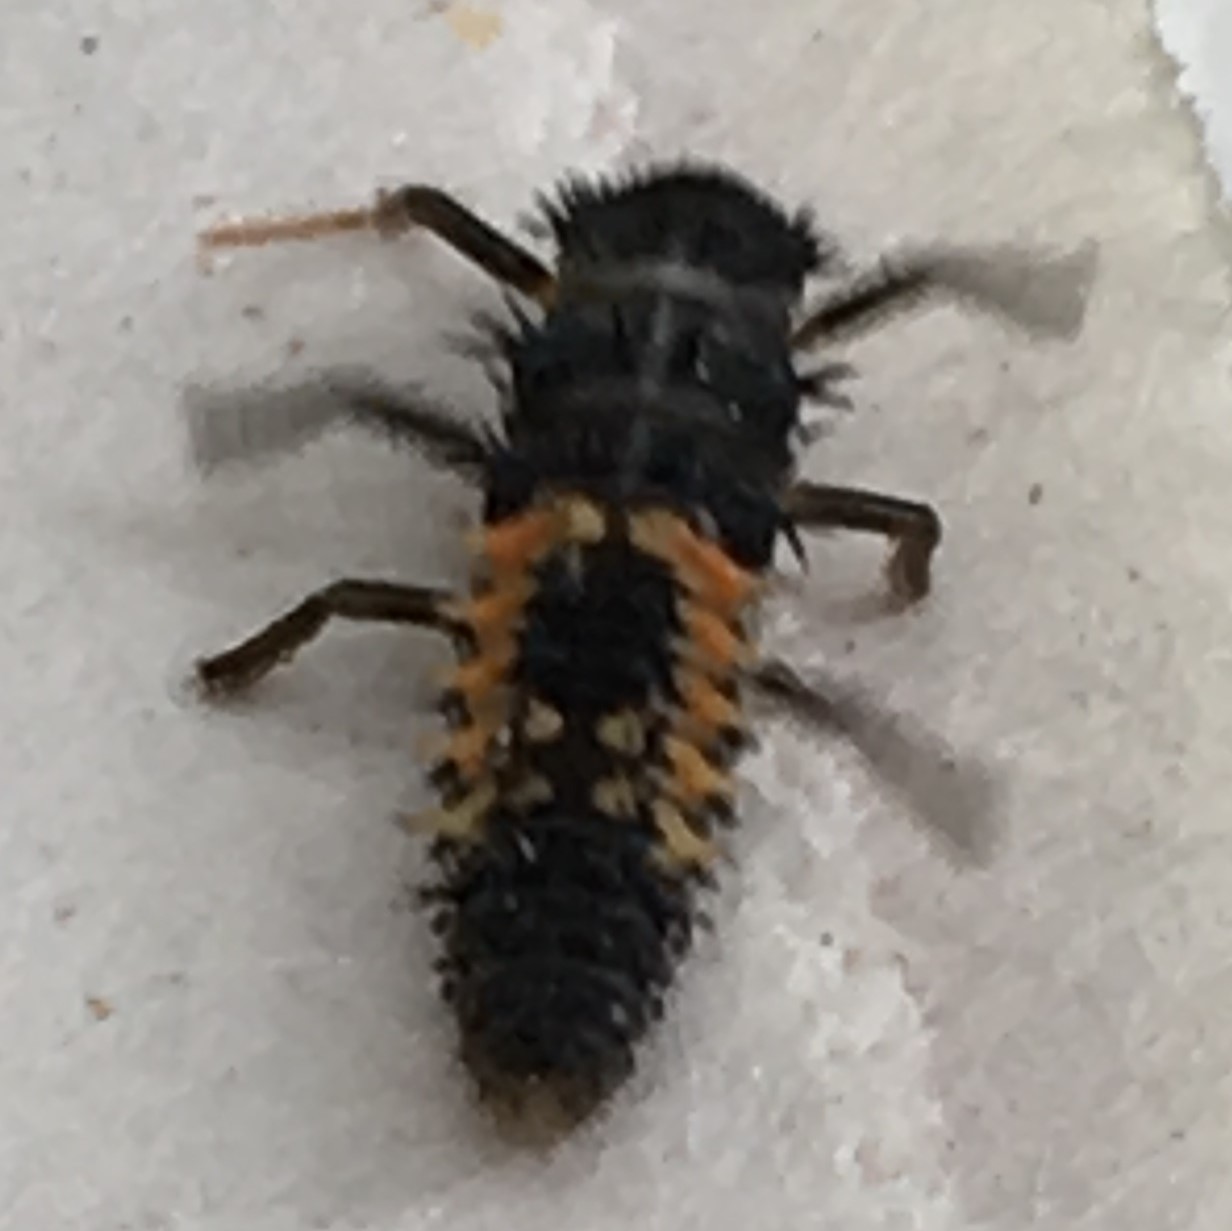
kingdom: Animalia
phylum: Arthropoda
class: Insecta
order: Coleoptera
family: Coccinellidae
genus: Harmonia
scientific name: Harmonia axyridis
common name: Harlequin ladybird
